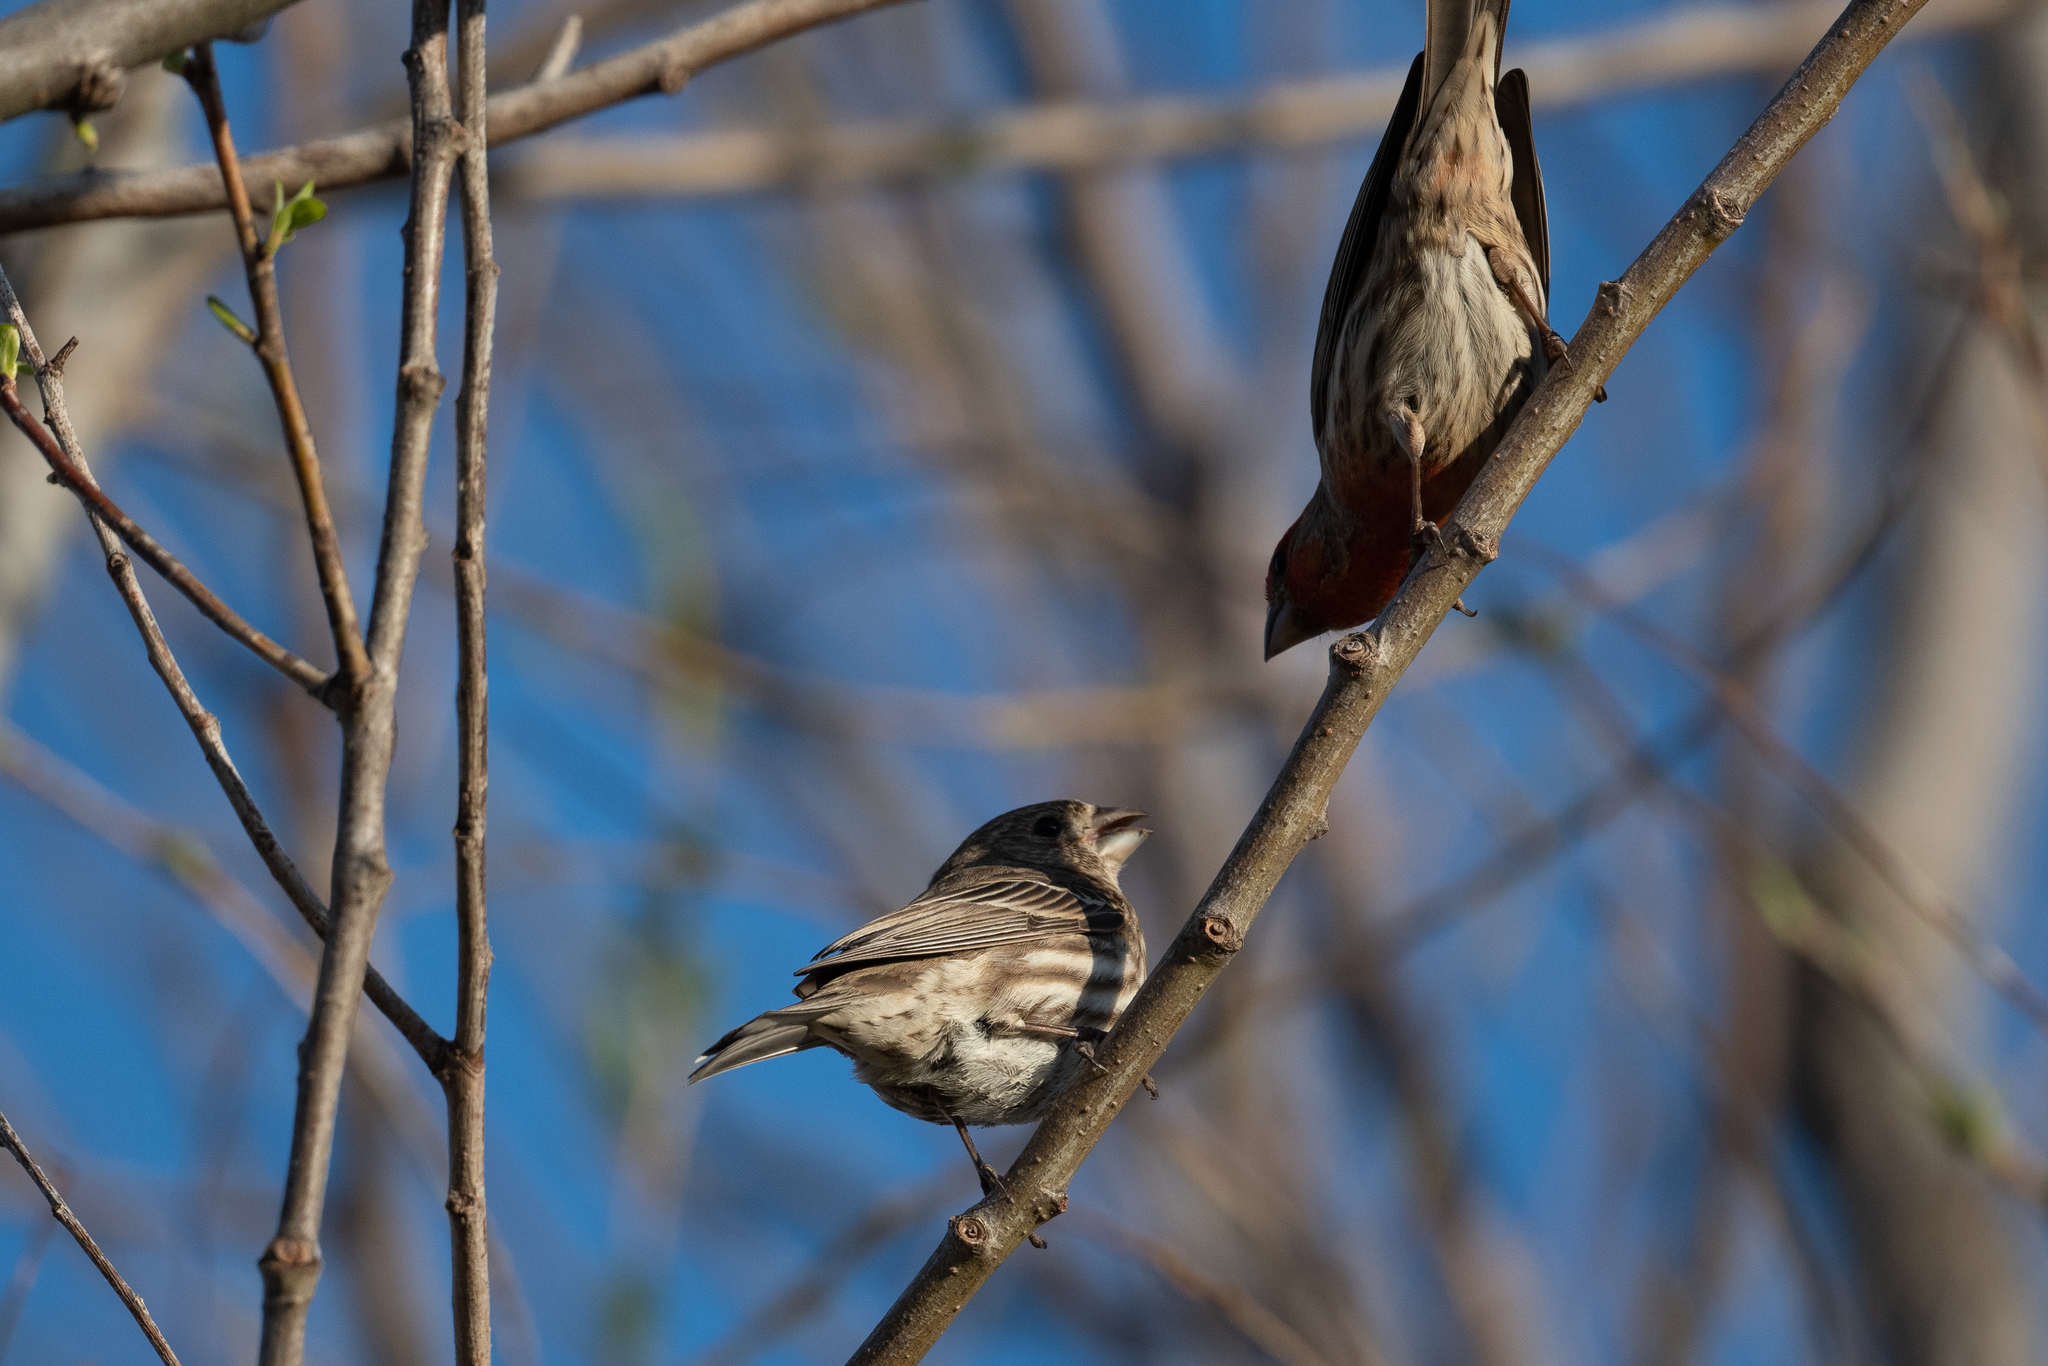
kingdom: Animalia
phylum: Chordata
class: Aves
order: Passeriformes
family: Fringillidae
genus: Haemorhous
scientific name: Haemorhous mexicanus
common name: House finch
